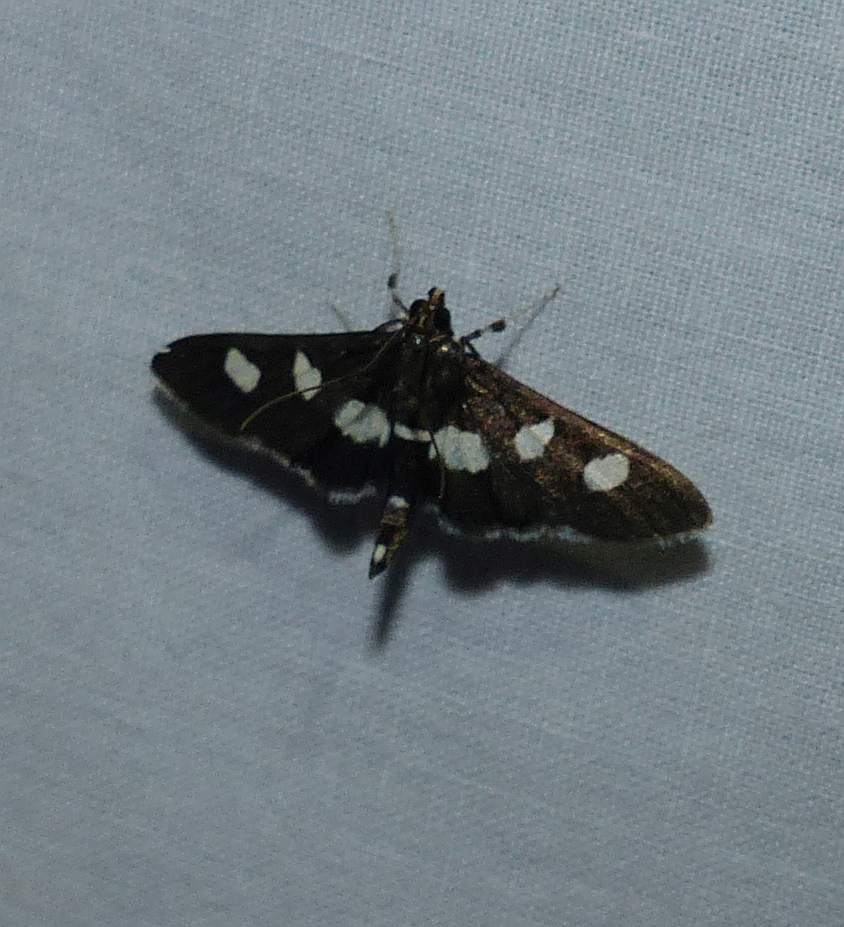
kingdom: Animalia
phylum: Arthropoda
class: Insecta
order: Lepidoptera
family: Crambidae
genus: Desmia
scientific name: Desmia
